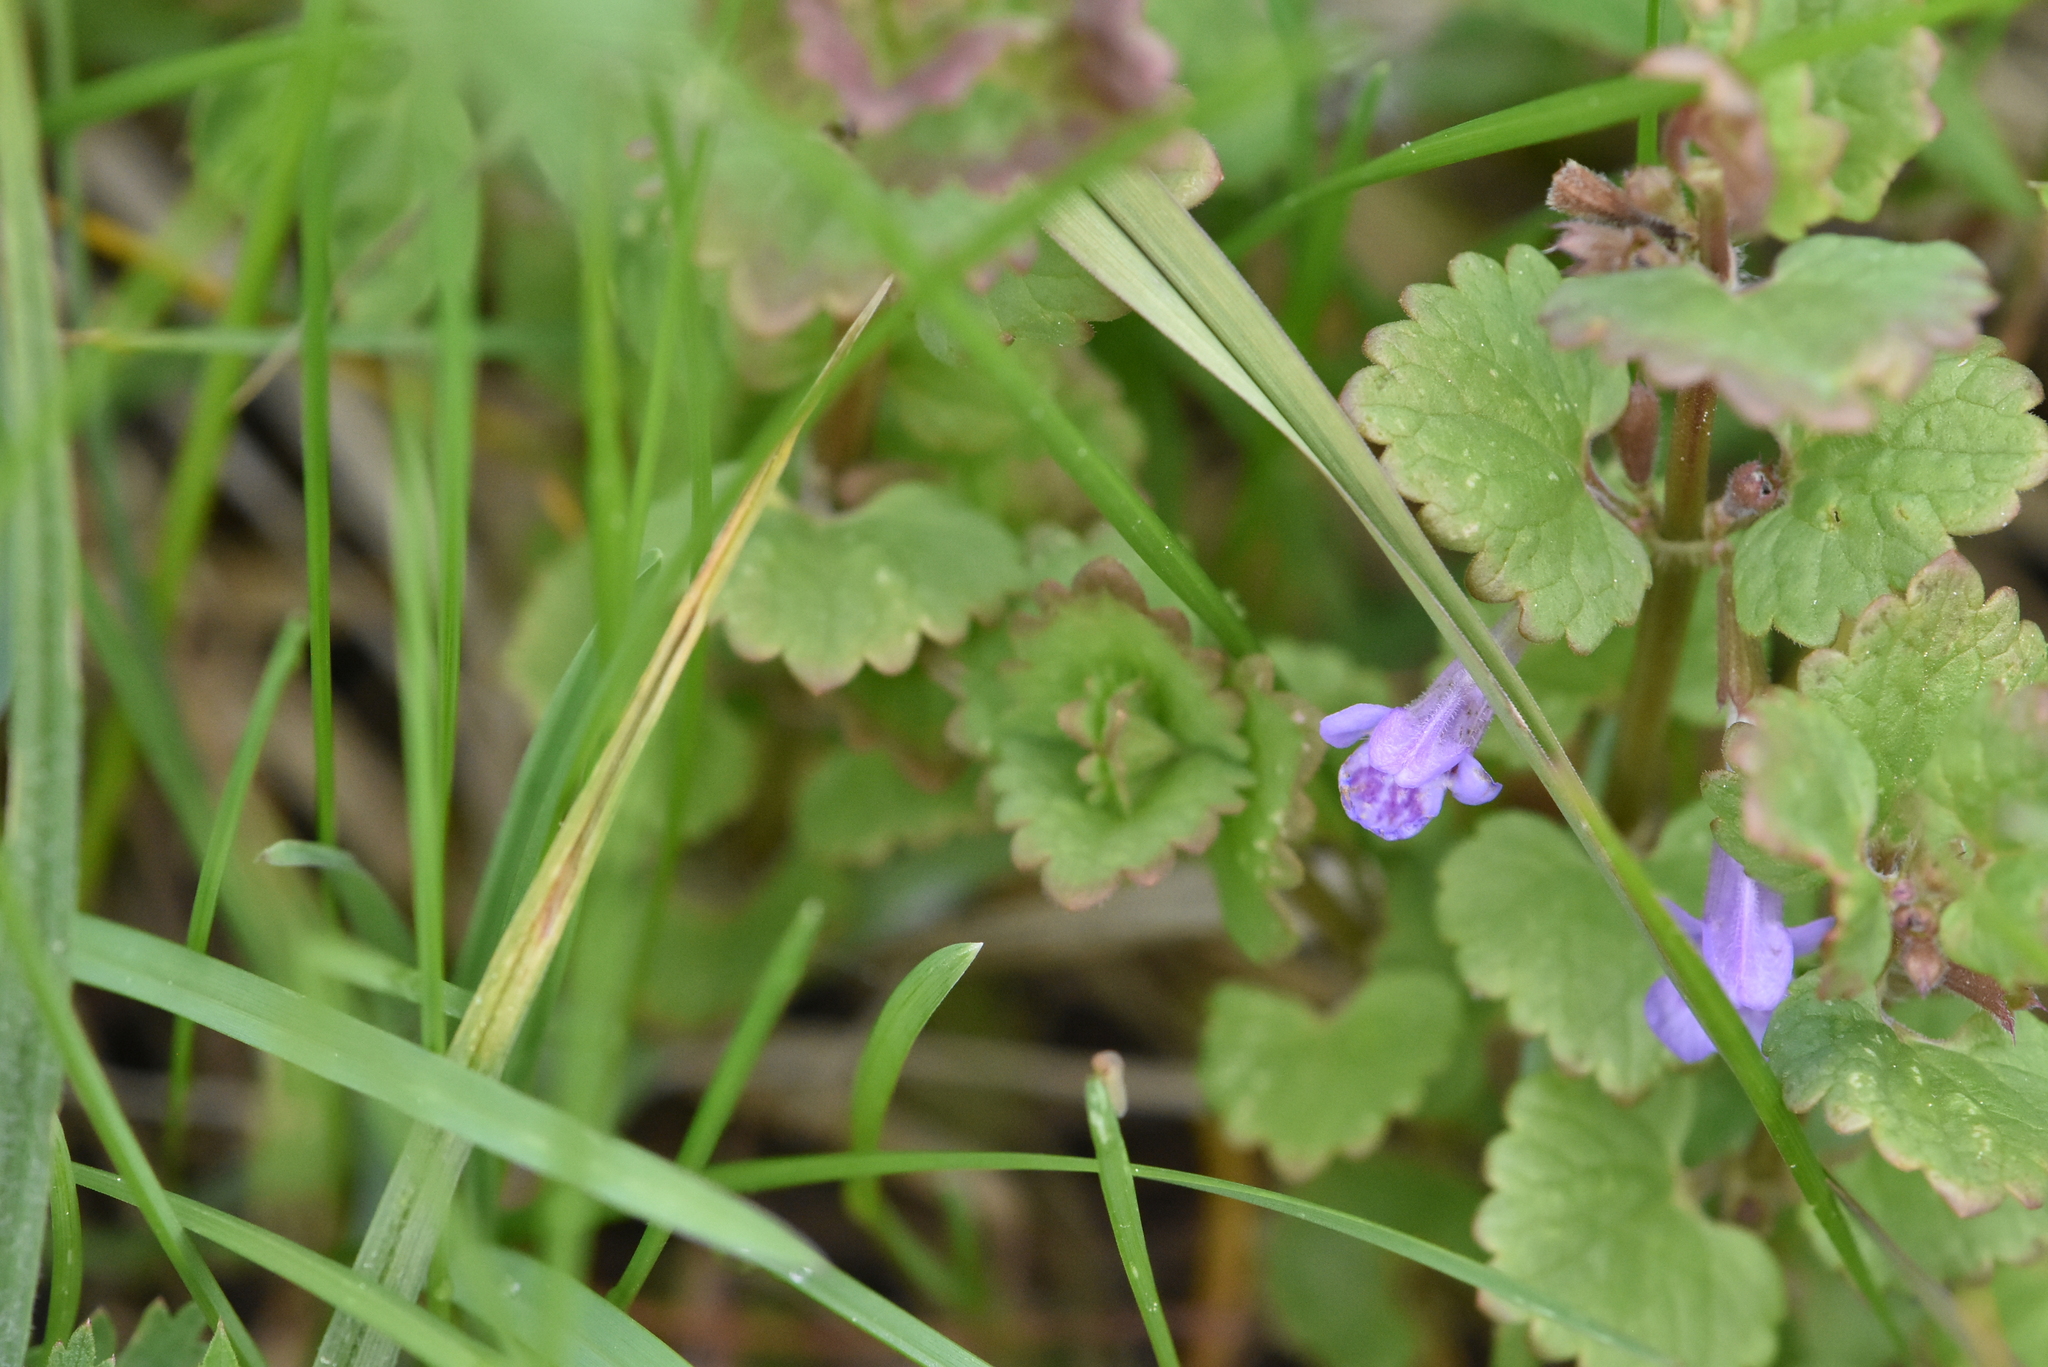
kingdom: Plantae
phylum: Tracheophyta
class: Magnoliopsida
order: Lamiales
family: Lamiaceae
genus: Glechoma
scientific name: Glechoma hederacea
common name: Ground ivy
